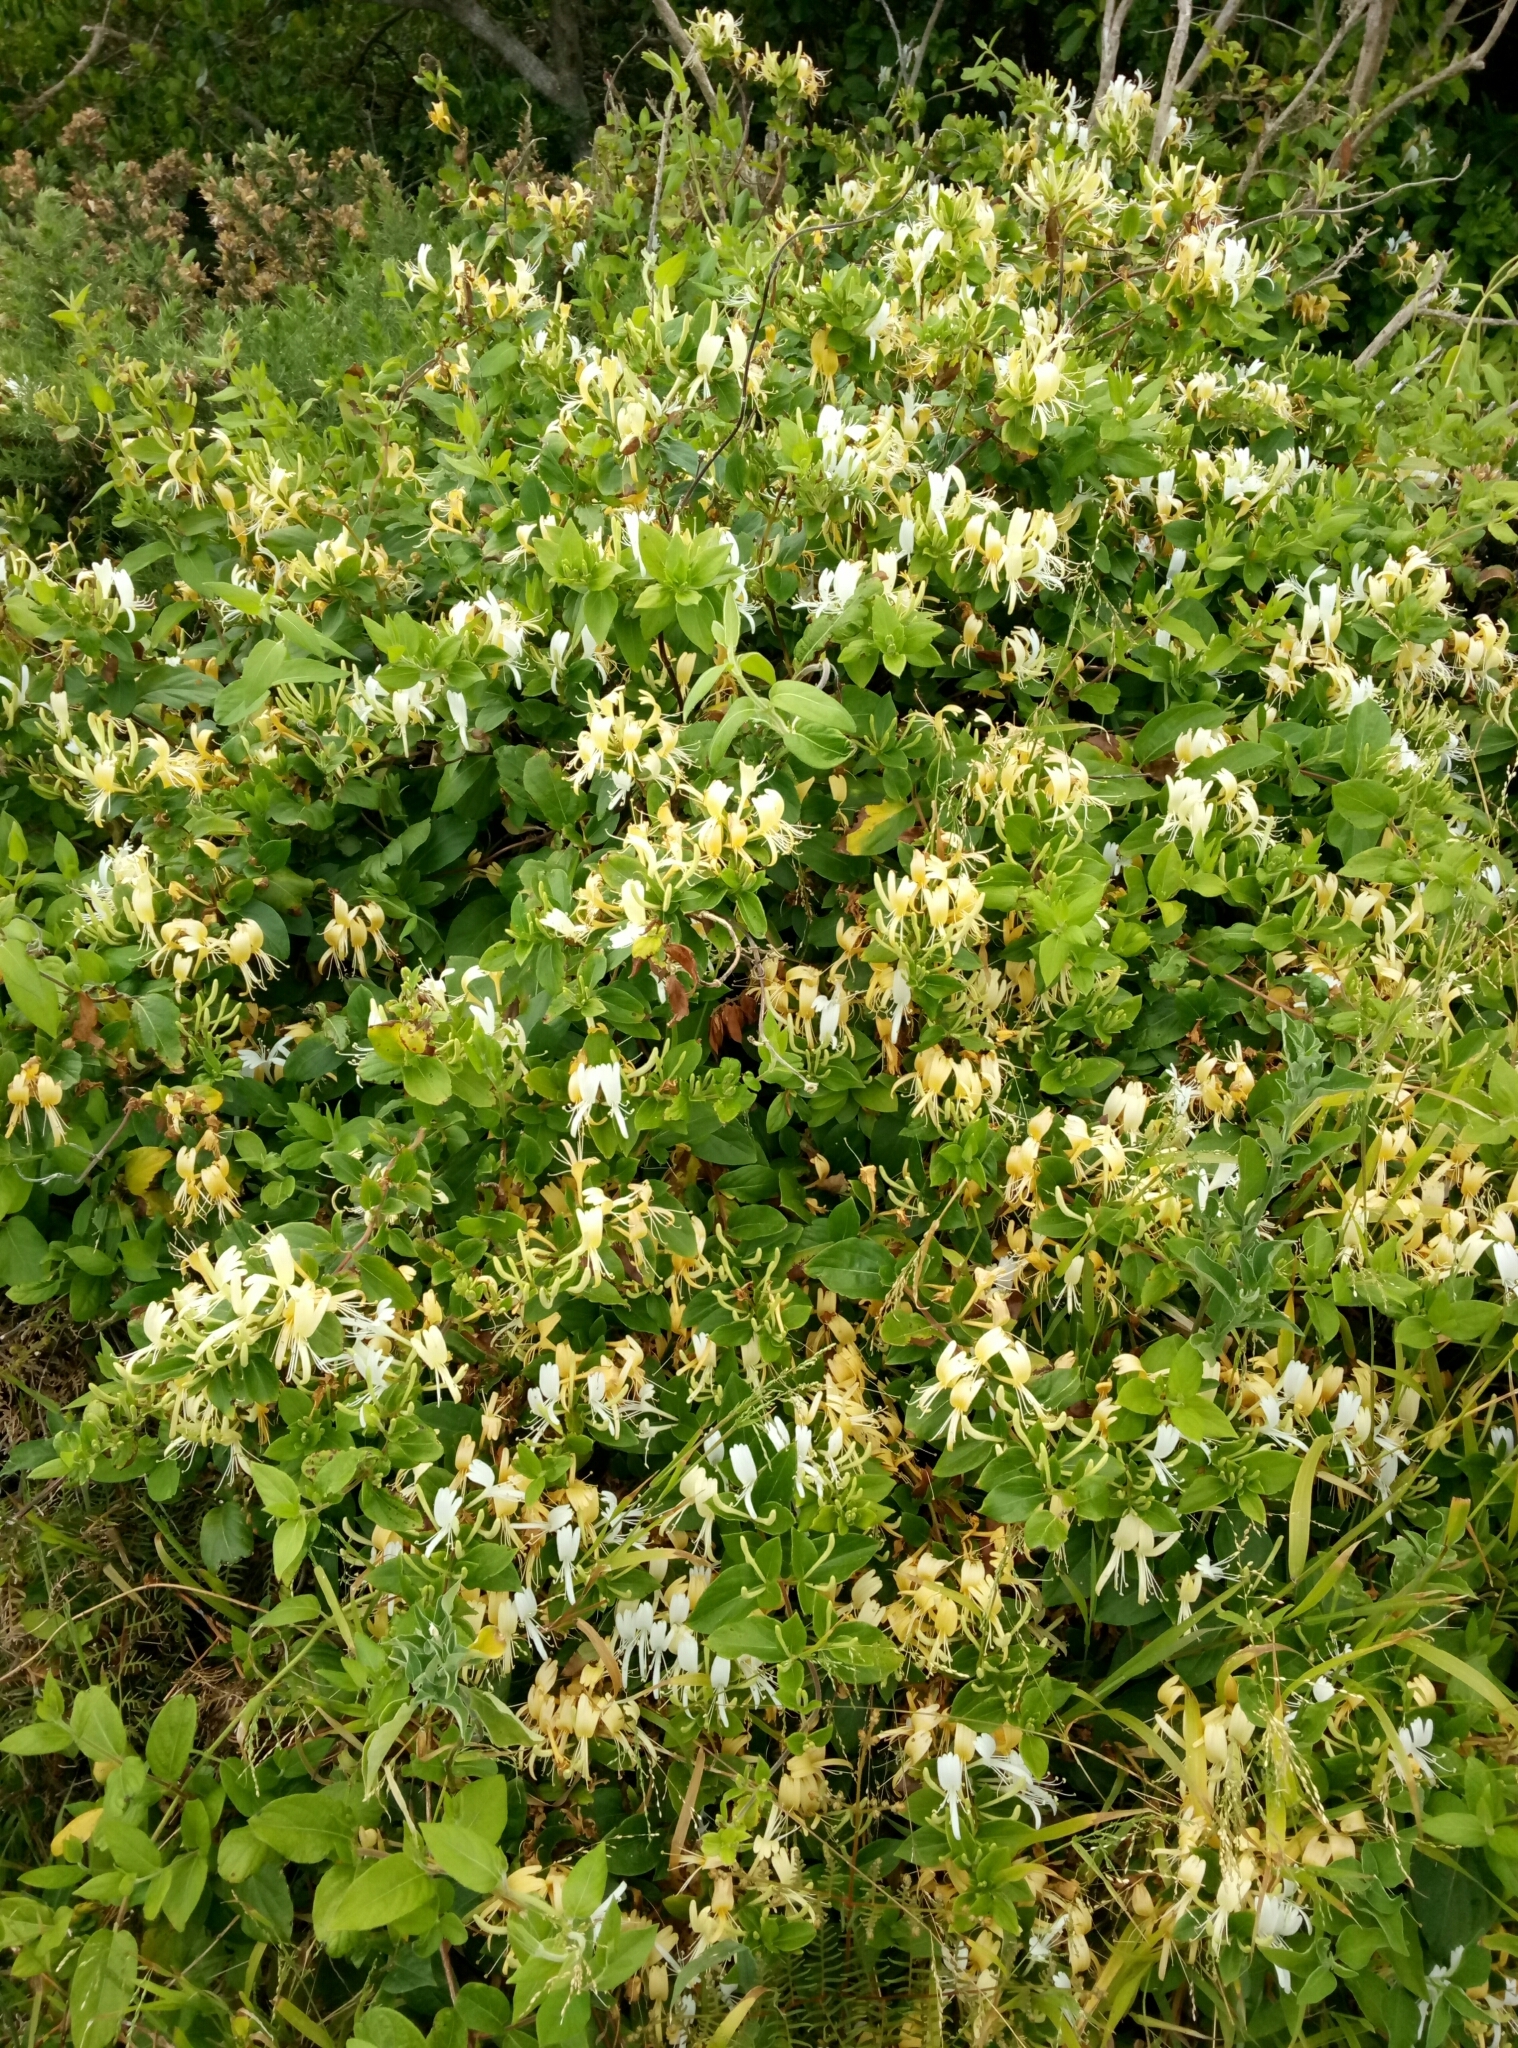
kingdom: Plantae
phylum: Tracheophyta
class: Magnoliopsida
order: Dipsacales
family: Caprifoliaceae
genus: Lonicera
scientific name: Lonicera japonica
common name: Japanese honeysuckle
